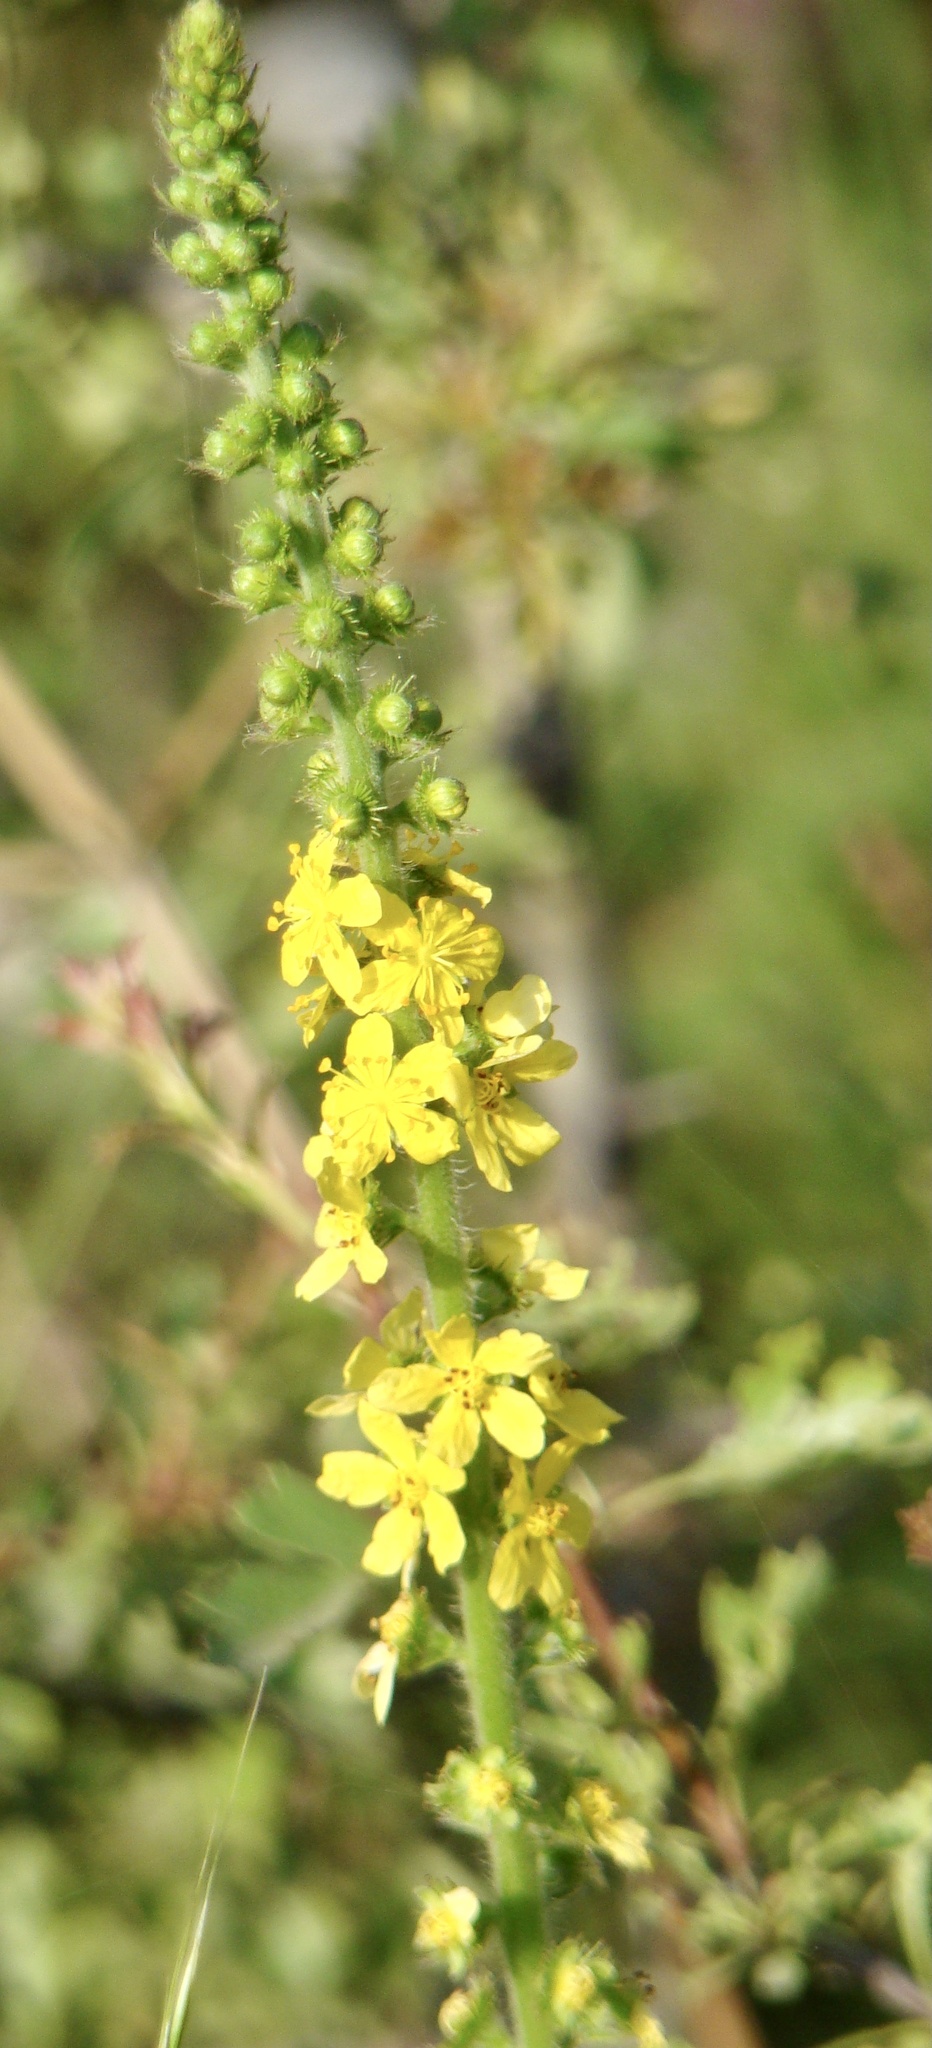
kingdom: Plantae
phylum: Tracheophyta
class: Magnoliopsida
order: Rosales
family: Rosaceae
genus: Agrimonia
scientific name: Agrimonia eupatoria
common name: Agrimony
